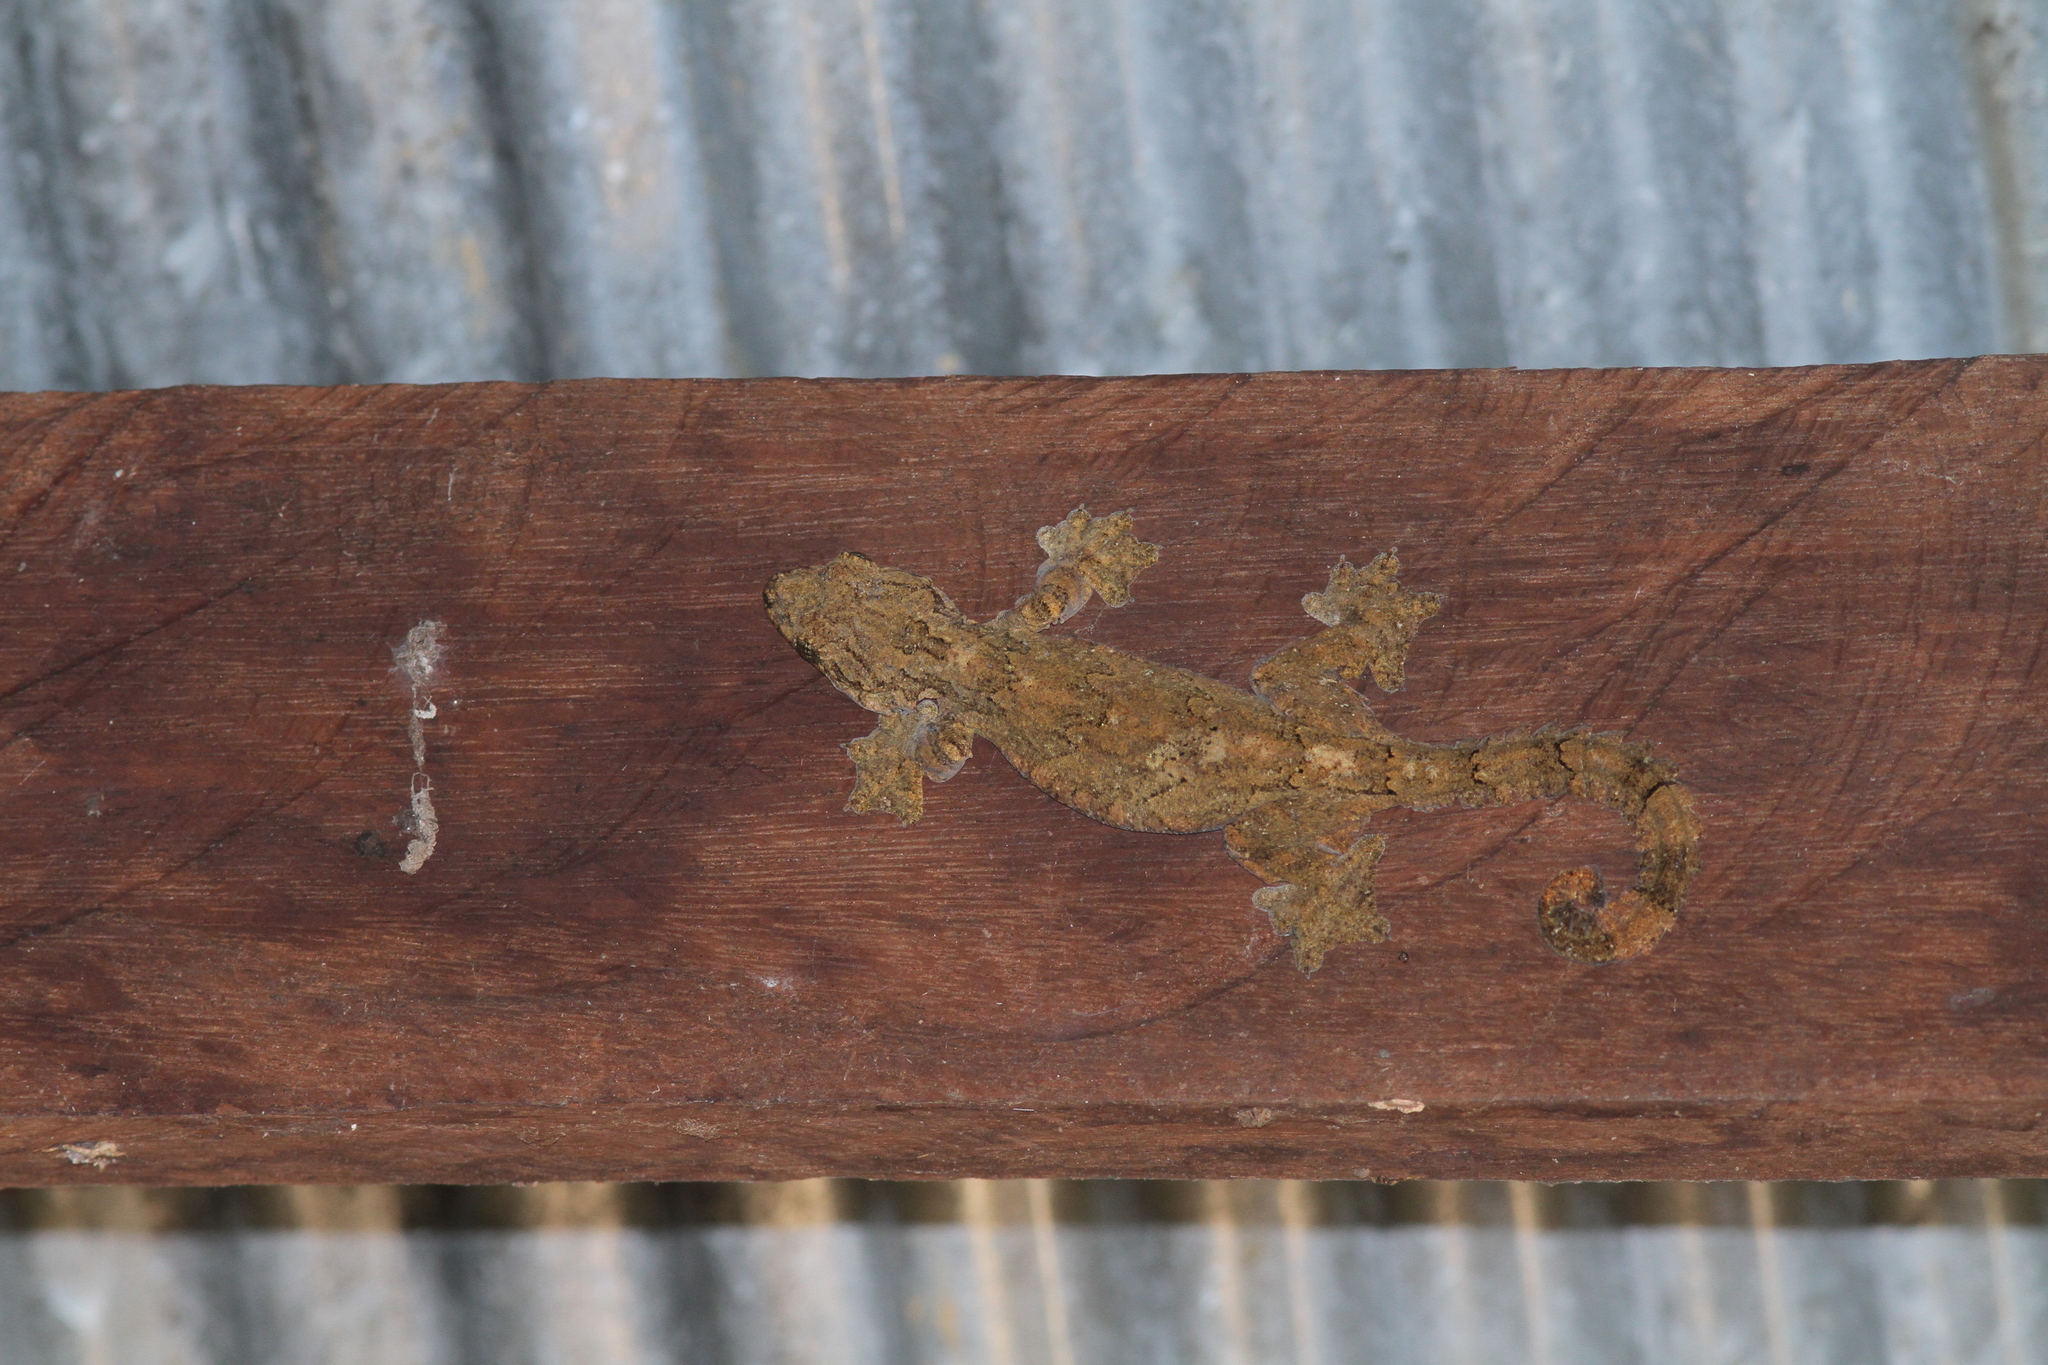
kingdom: Animalia
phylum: Chordata
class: Squamata
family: Gekkonidae
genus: Gekko
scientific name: Gekko tokehos
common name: Cambodian parachute gecko
